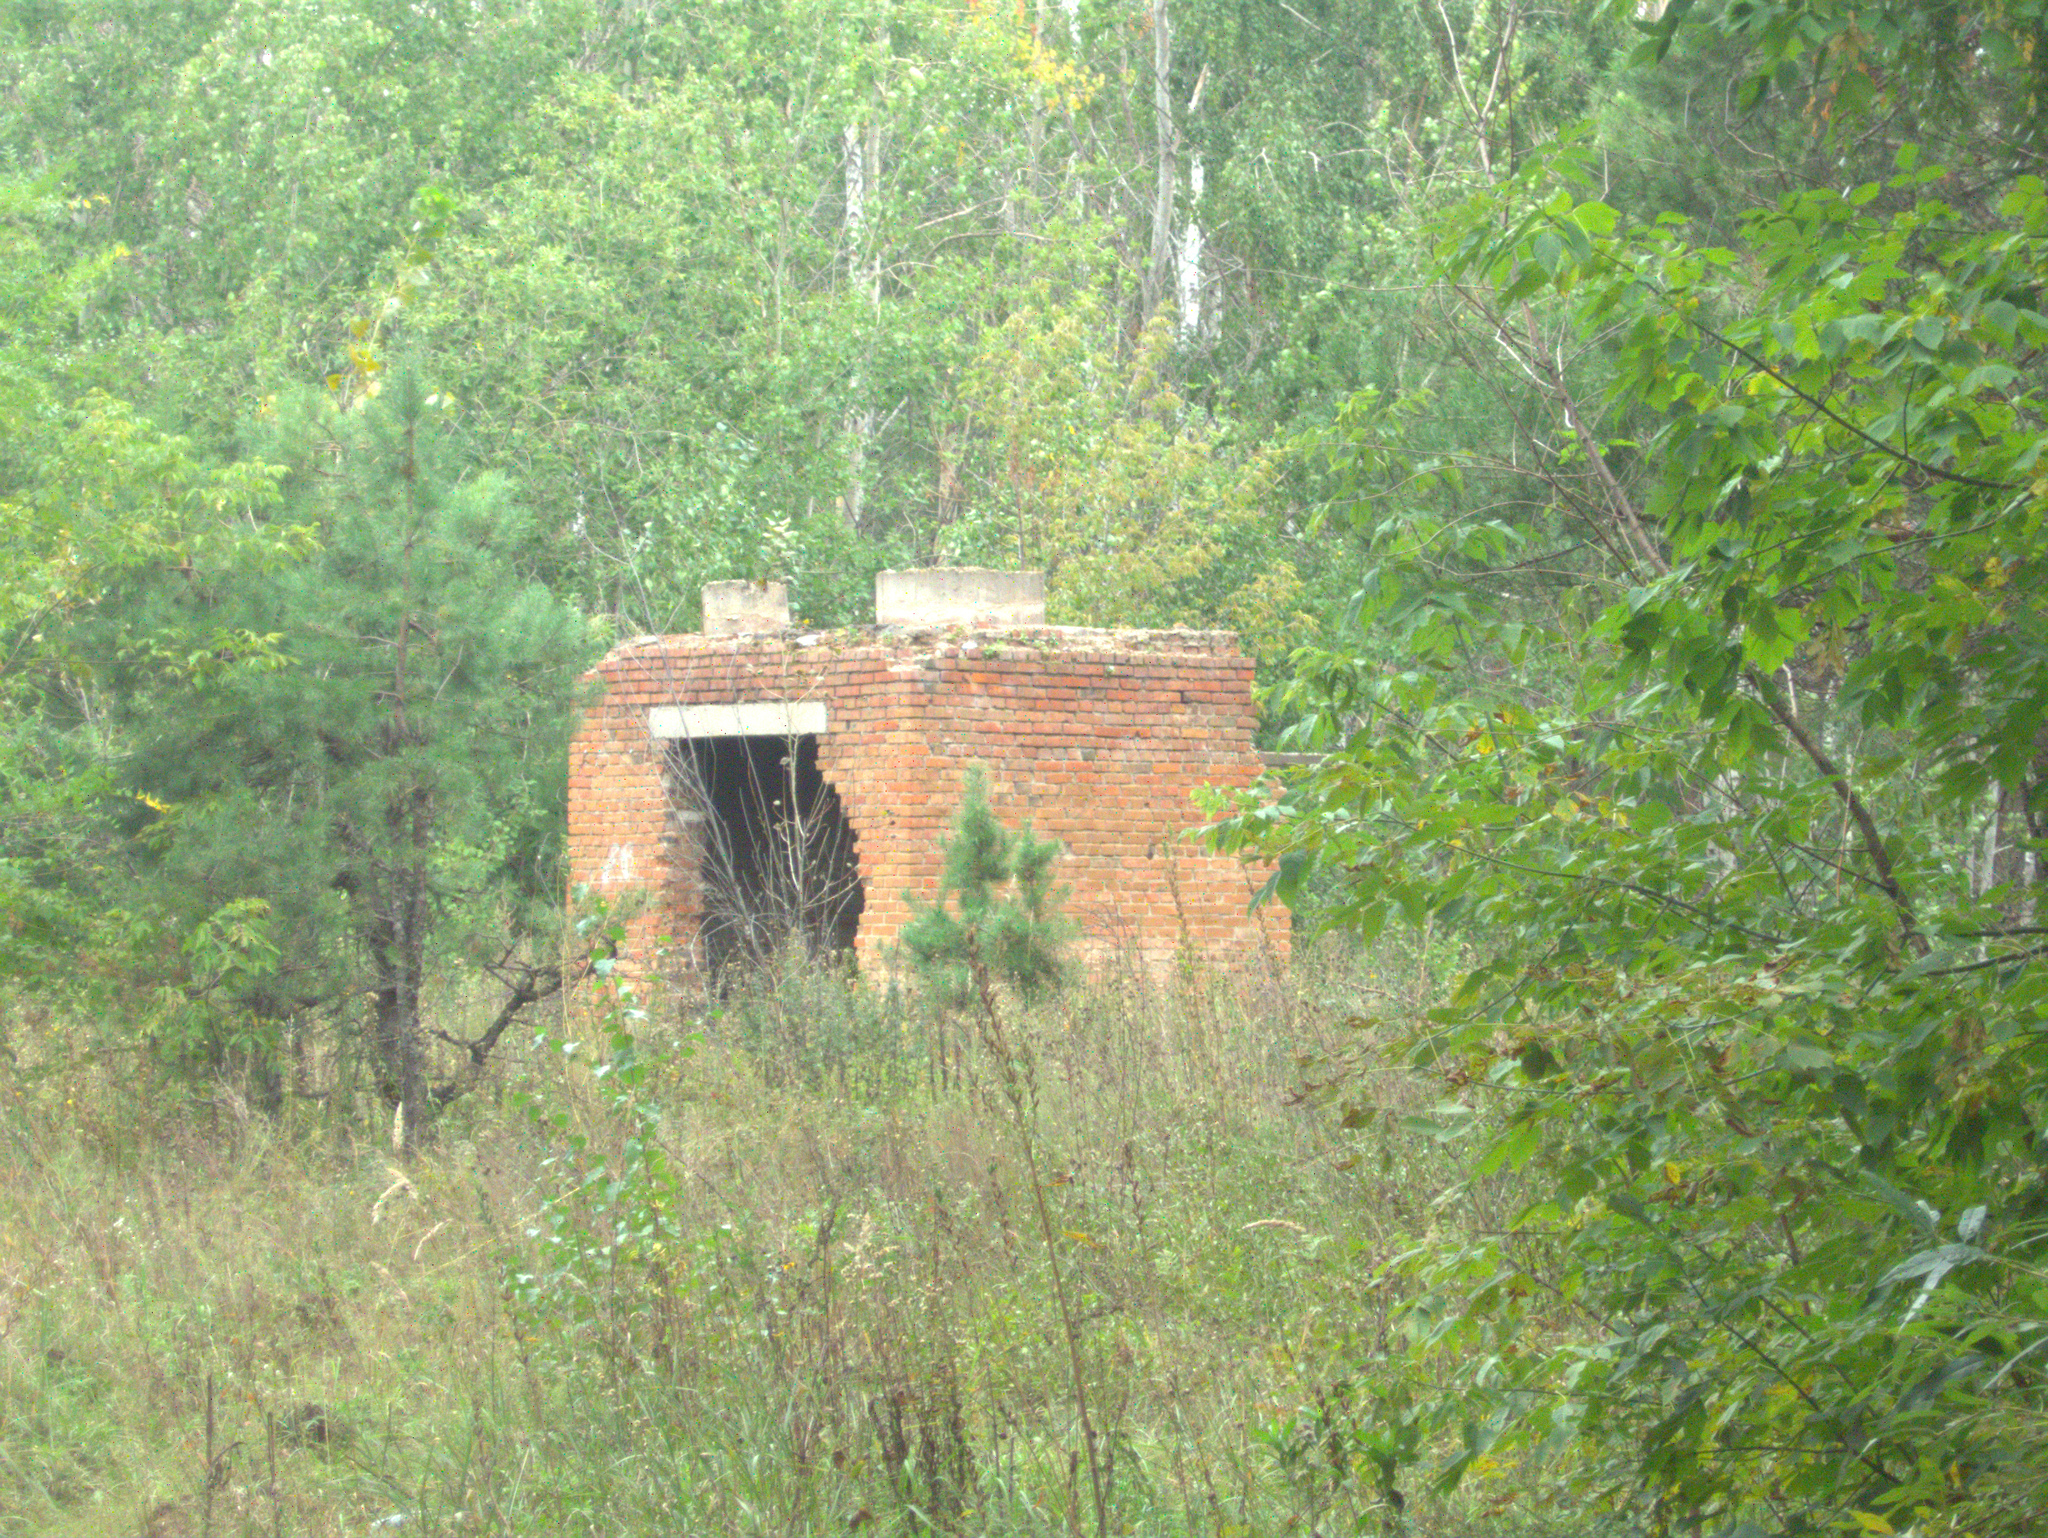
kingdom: Plantae
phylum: Tracheophyta
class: Pinopsida
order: Pinales
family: Pinaceae
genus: Pinus
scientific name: Pinus sylvestris
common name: Scots pine
